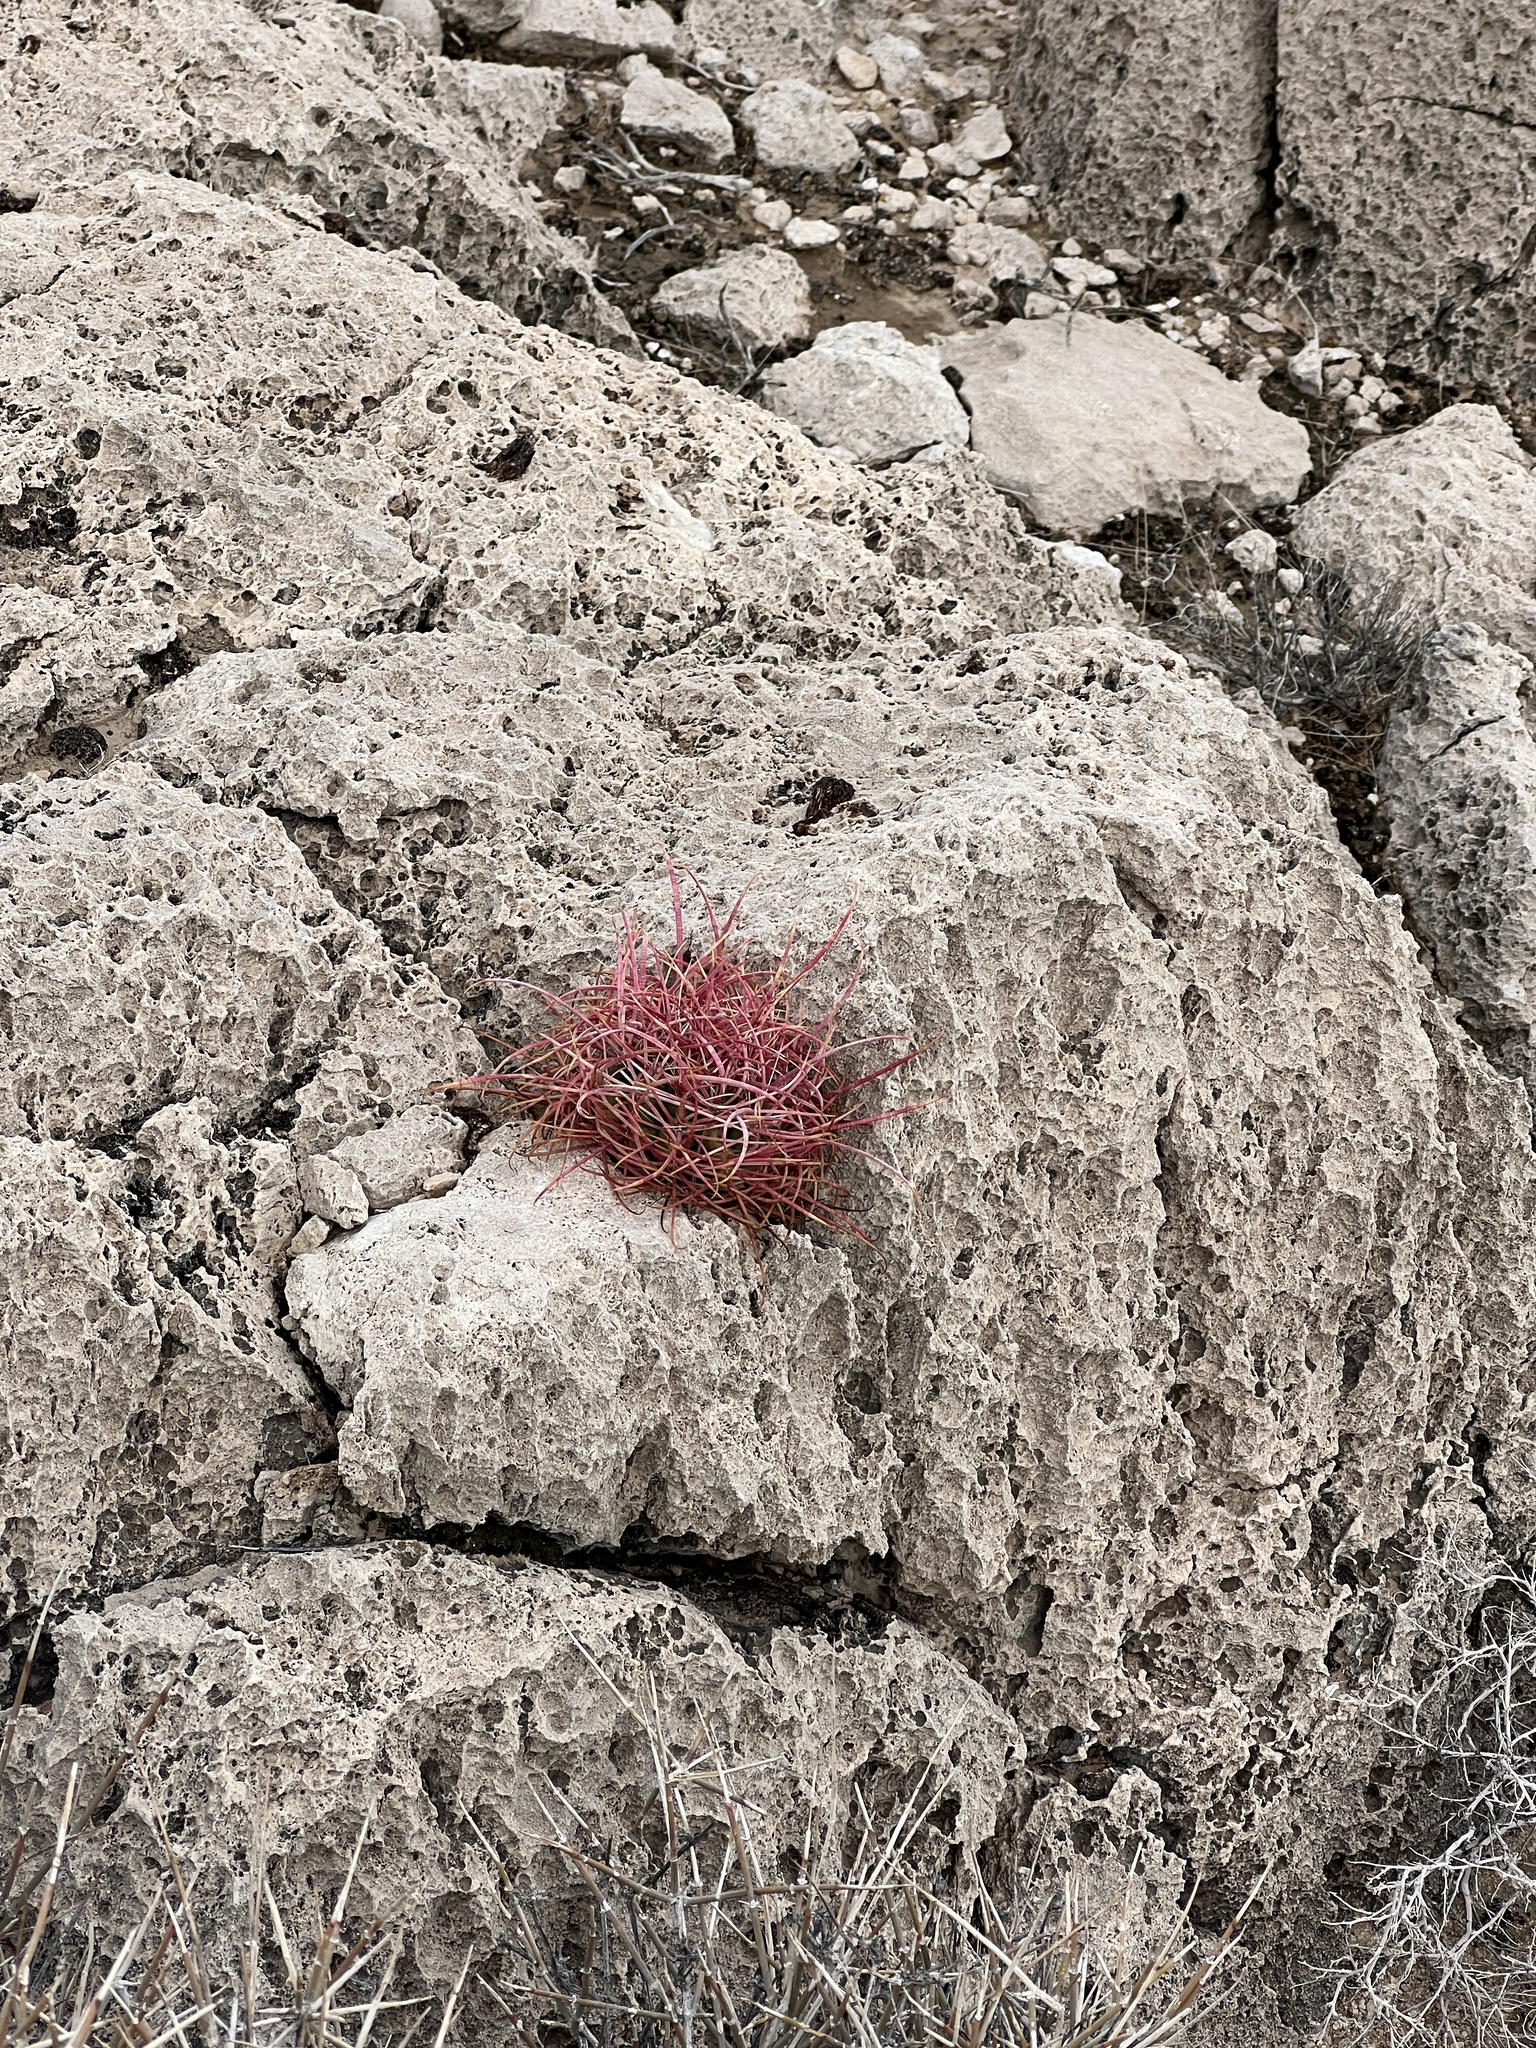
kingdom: Plantae
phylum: Tracheophyta
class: Magnoliopsida
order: Caryophyllales
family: Cactaceae
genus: Ferocactus
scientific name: Ferocactus cylindraceus
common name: California barrel cactus
